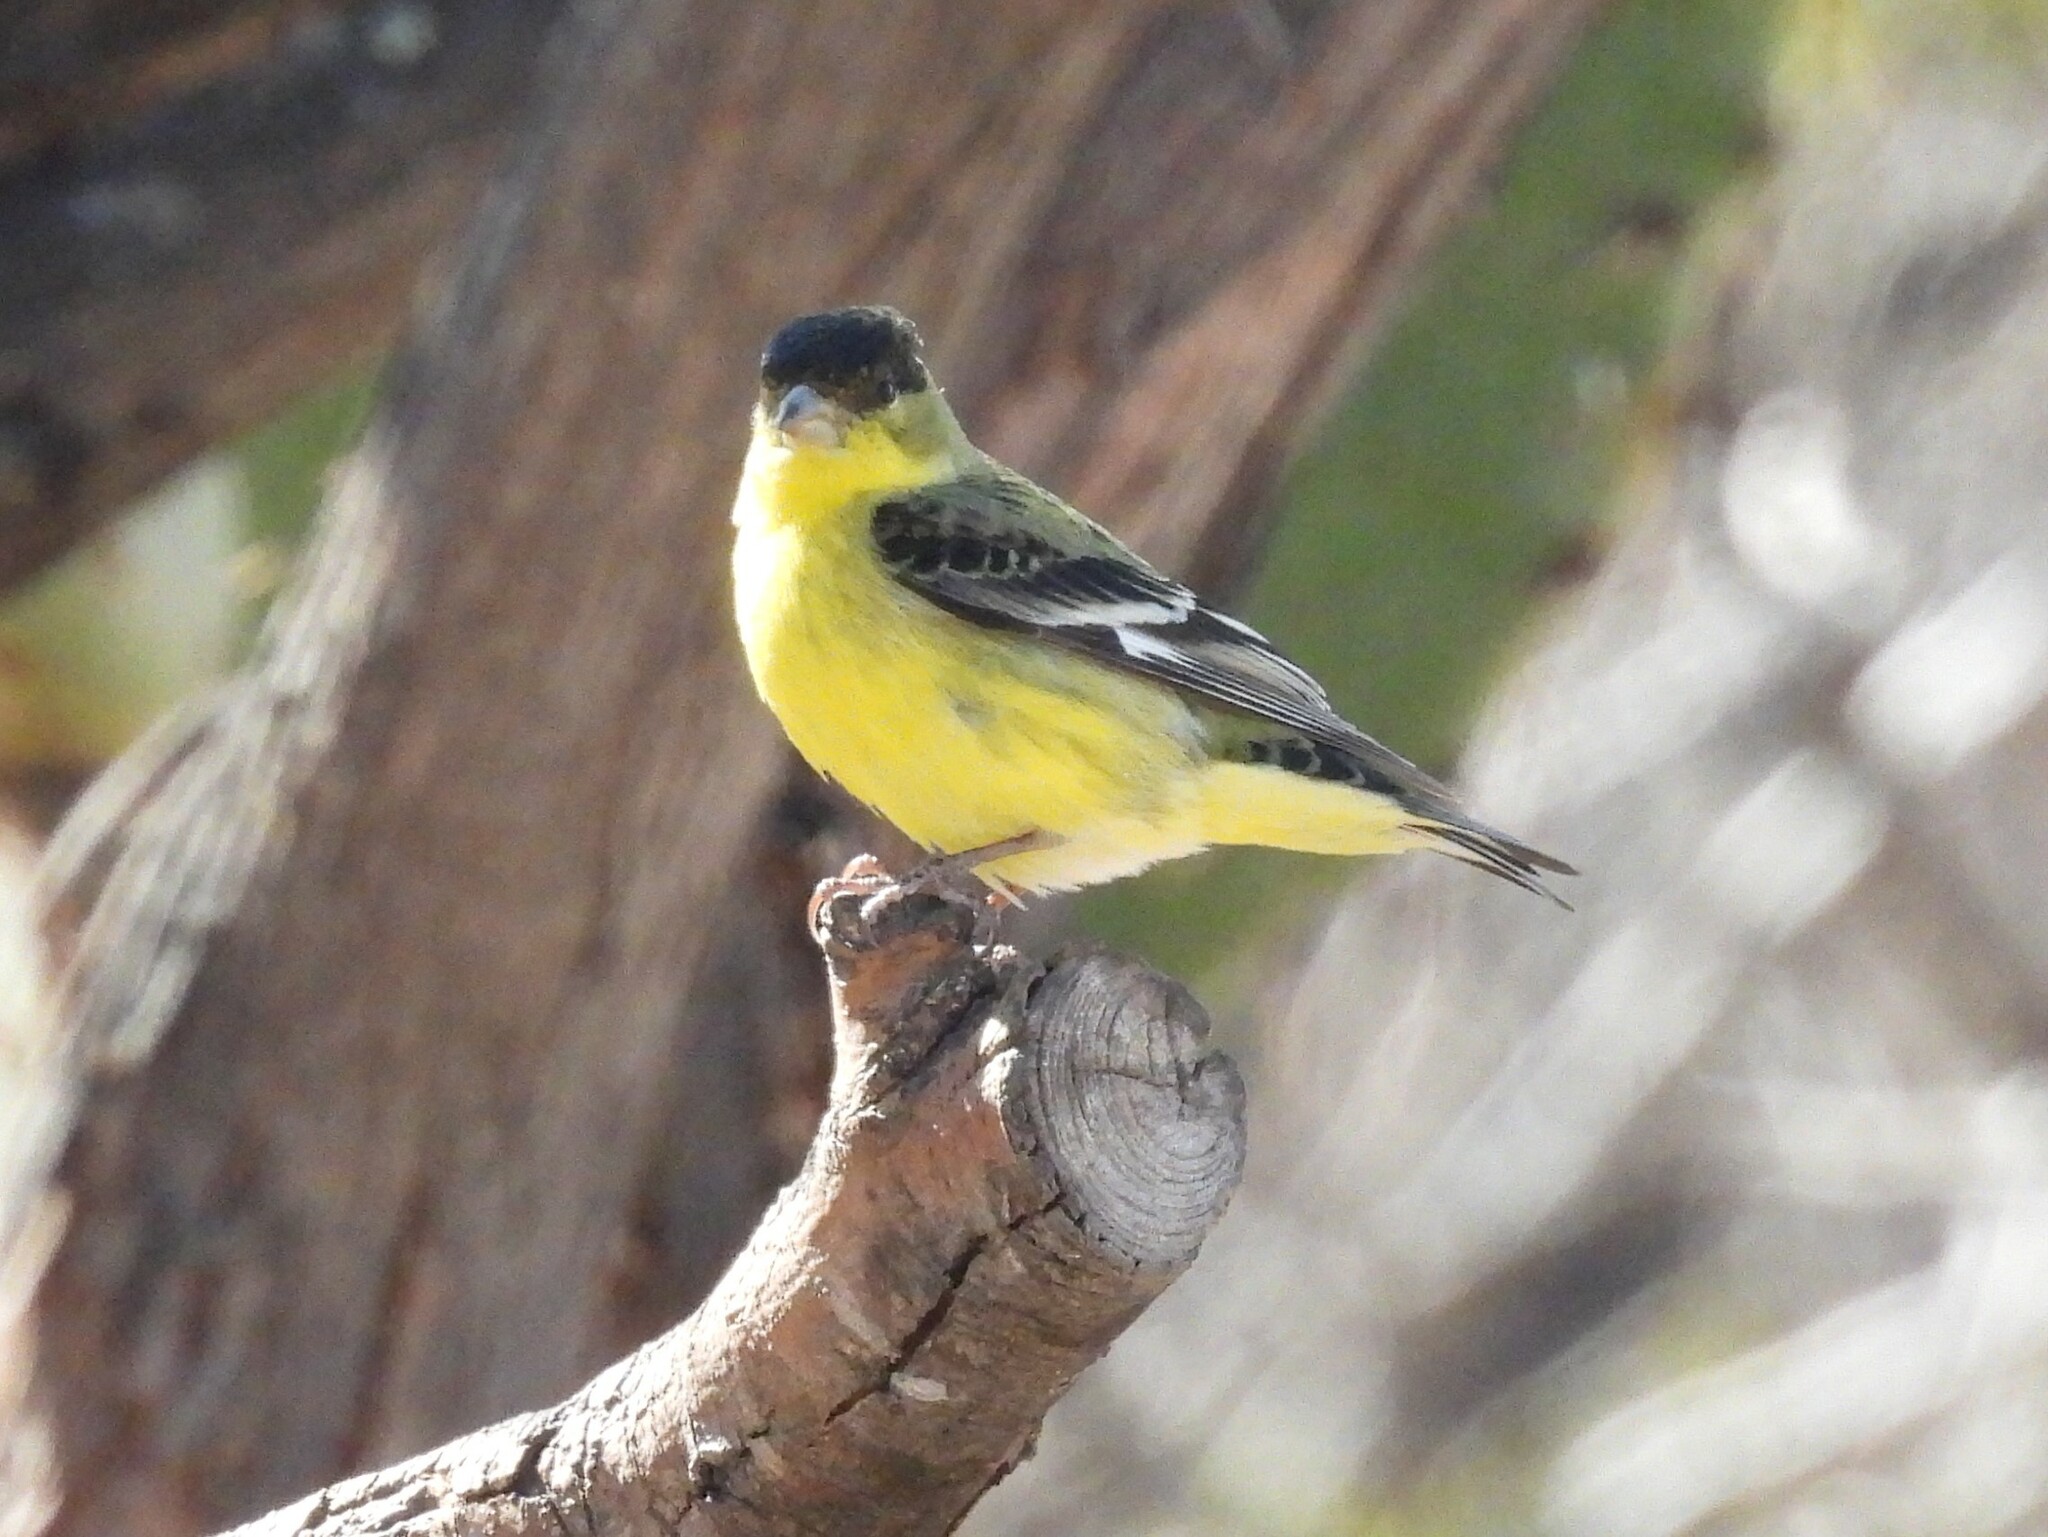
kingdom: Animalia
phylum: Chordata
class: Aves
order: Passeriformes
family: Fringillidae
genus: Spinus
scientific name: Spinus psaltria
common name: Lesser goldfinch
